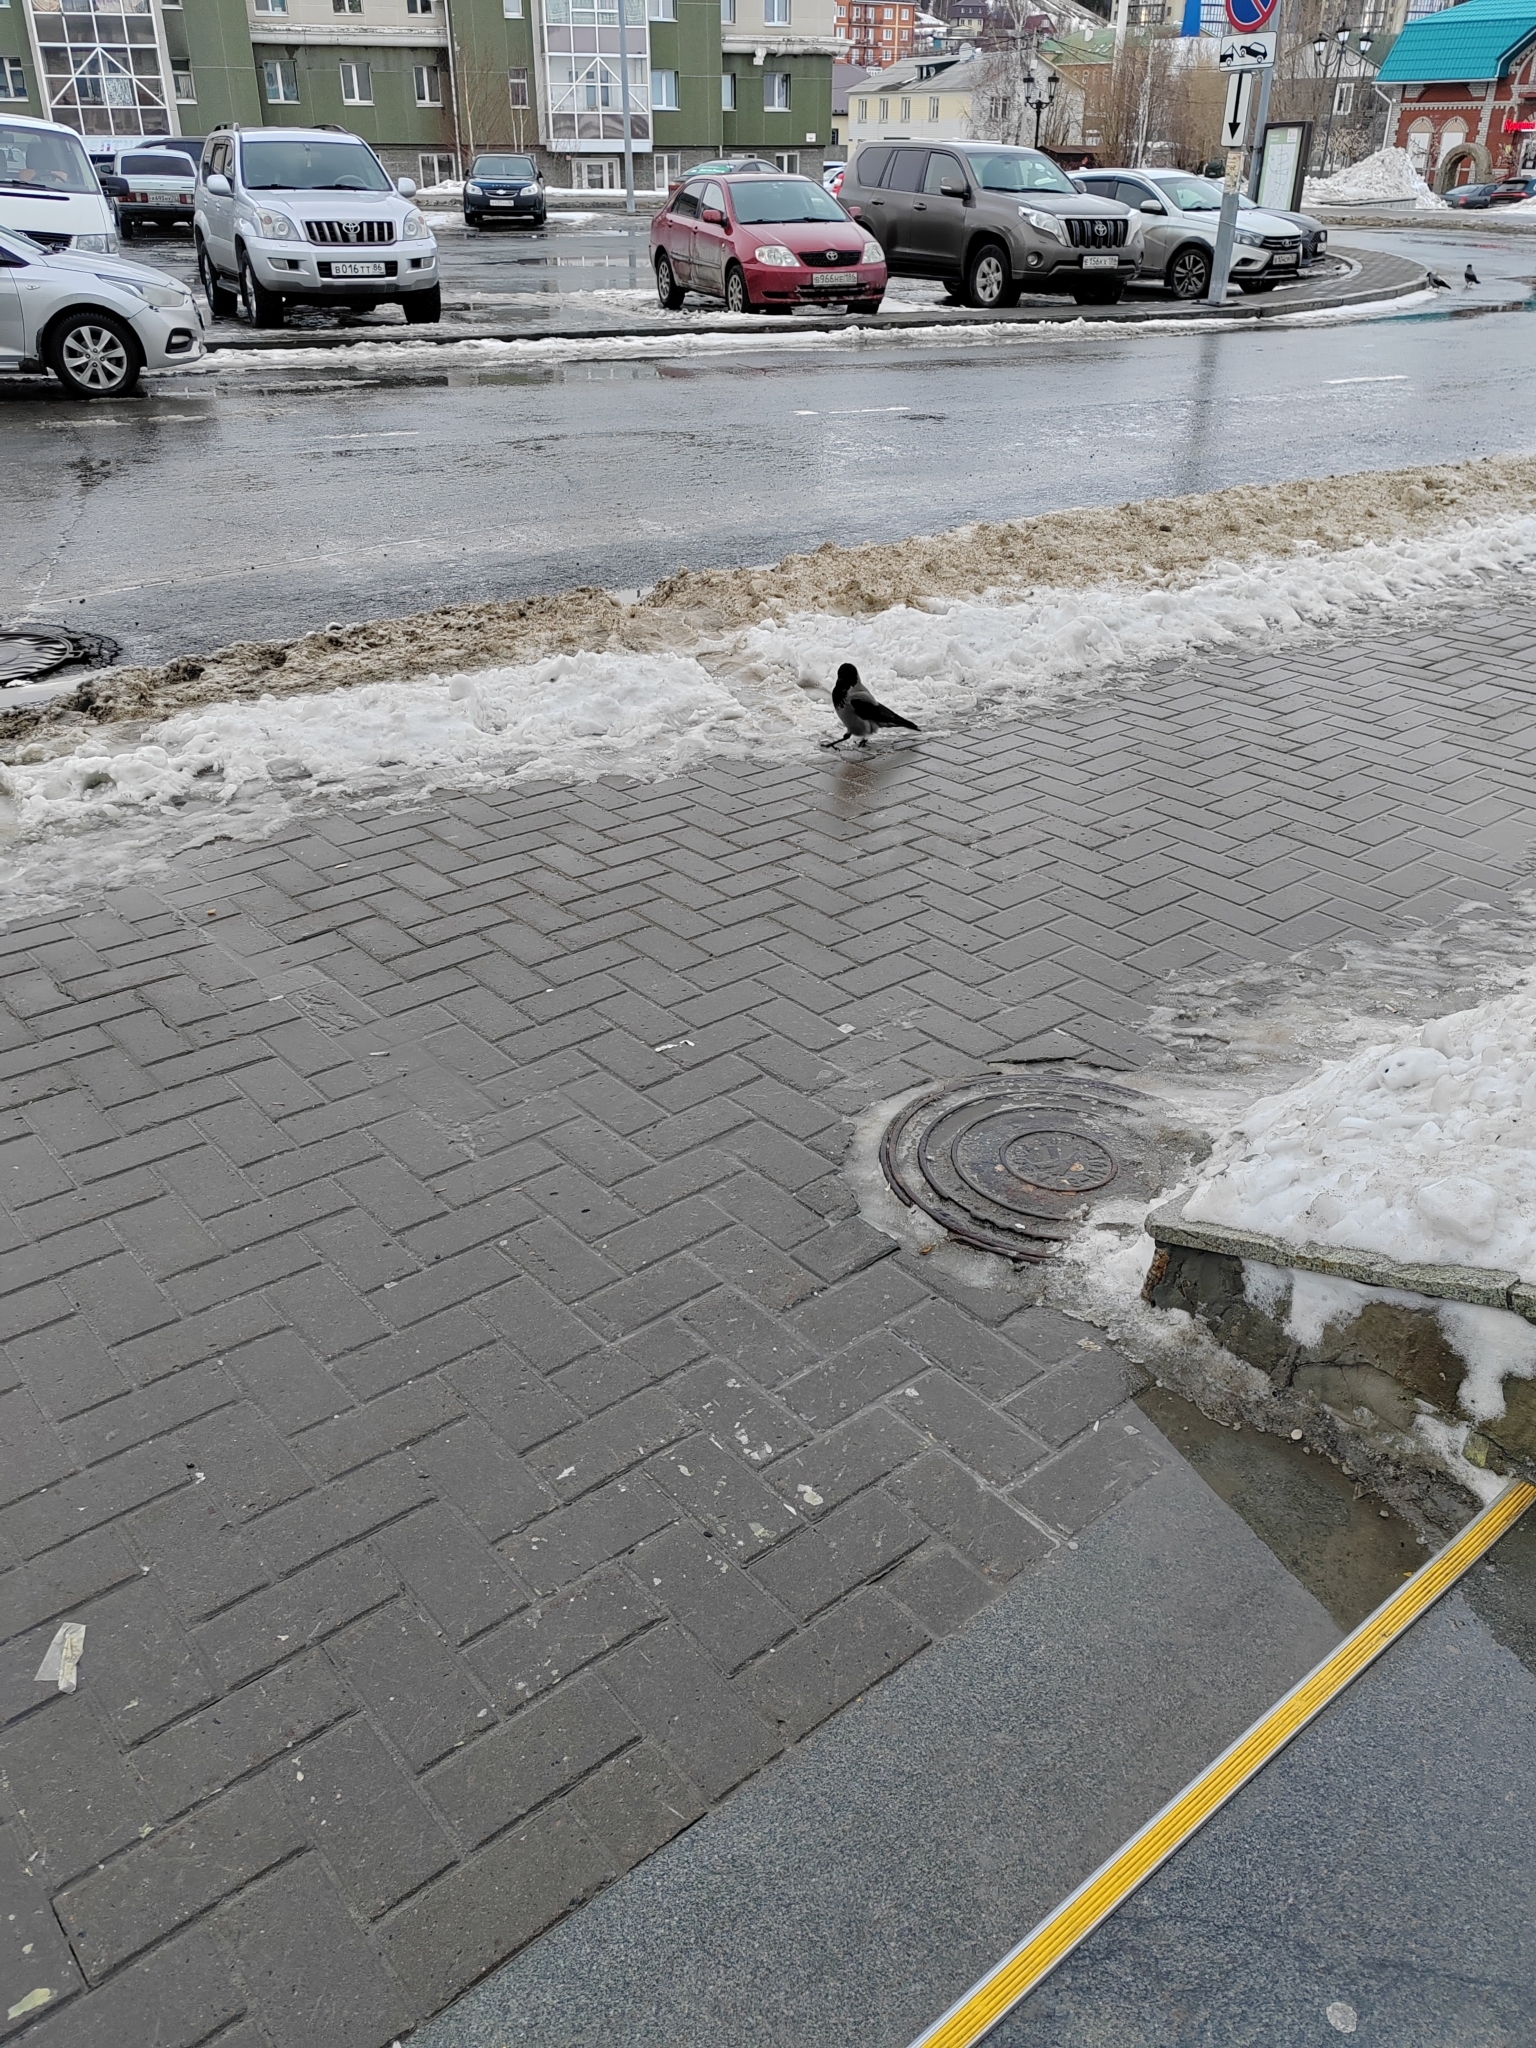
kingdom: Animalia
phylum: Chordata
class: Aves
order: Passeriformes
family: Corvidae
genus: Corvus
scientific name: Corvus cornix
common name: Hooded crow
